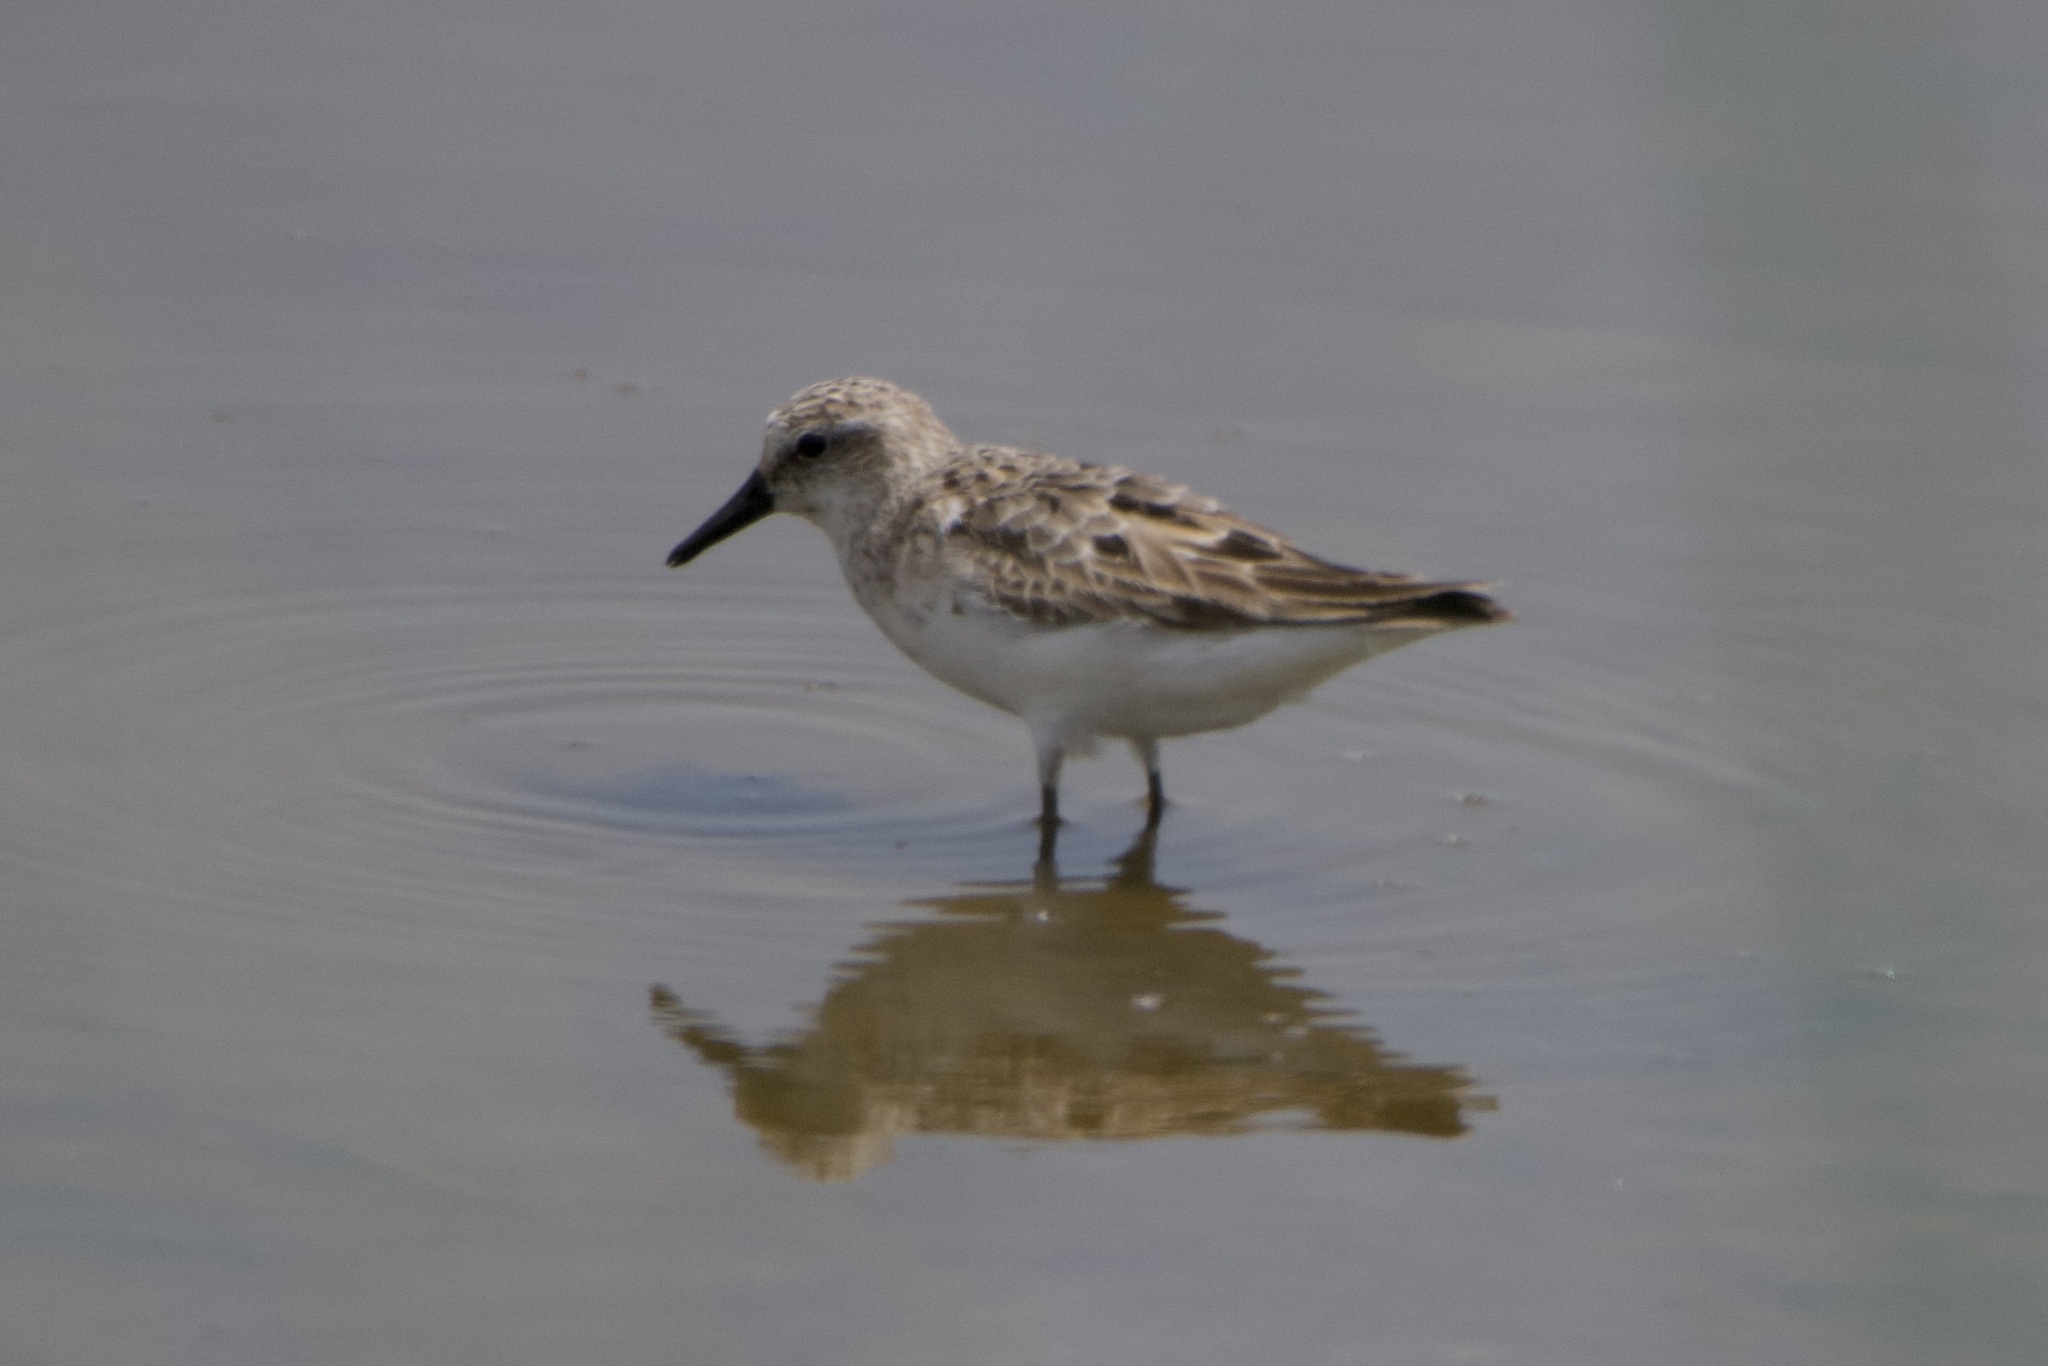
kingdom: Animalia
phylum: Chordata
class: Aves
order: Charadriiformes
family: Scolopacidae
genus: Calidris
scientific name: Calidris pusilla
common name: Semipalmated sandpiper
